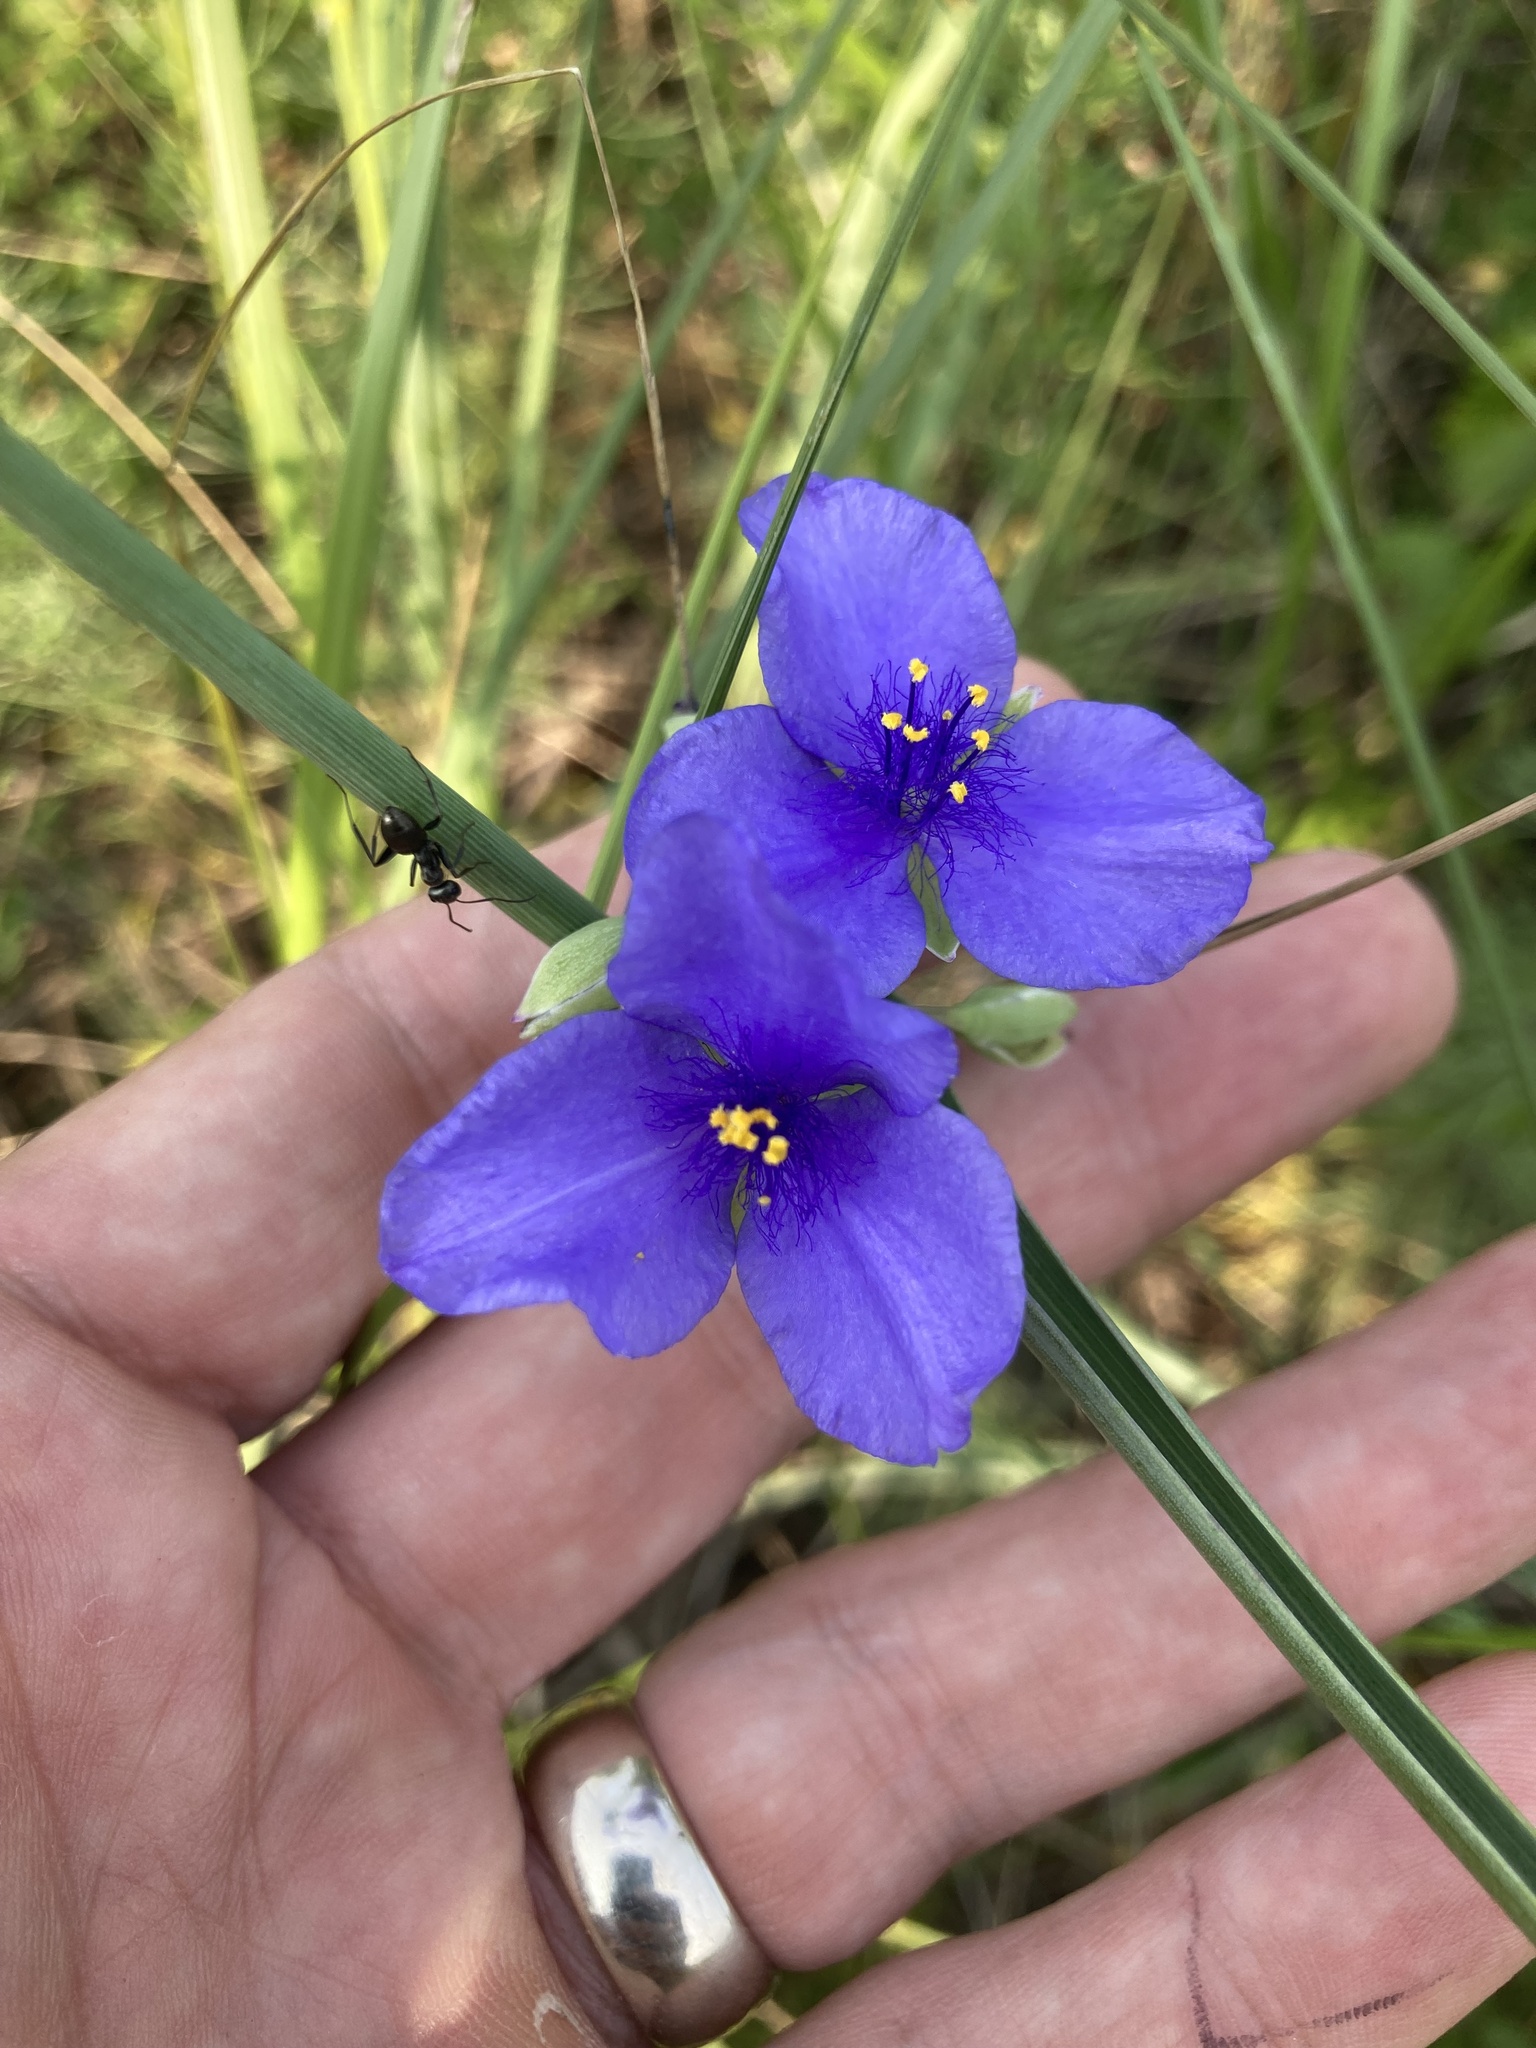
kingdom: Plantae
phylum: Tracheophyta
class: Liliopsida
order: Commelinales
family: Commelinaceae
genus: Tradescantia
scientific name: Tradescantia ohiensis
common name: Ohio spiderwort
